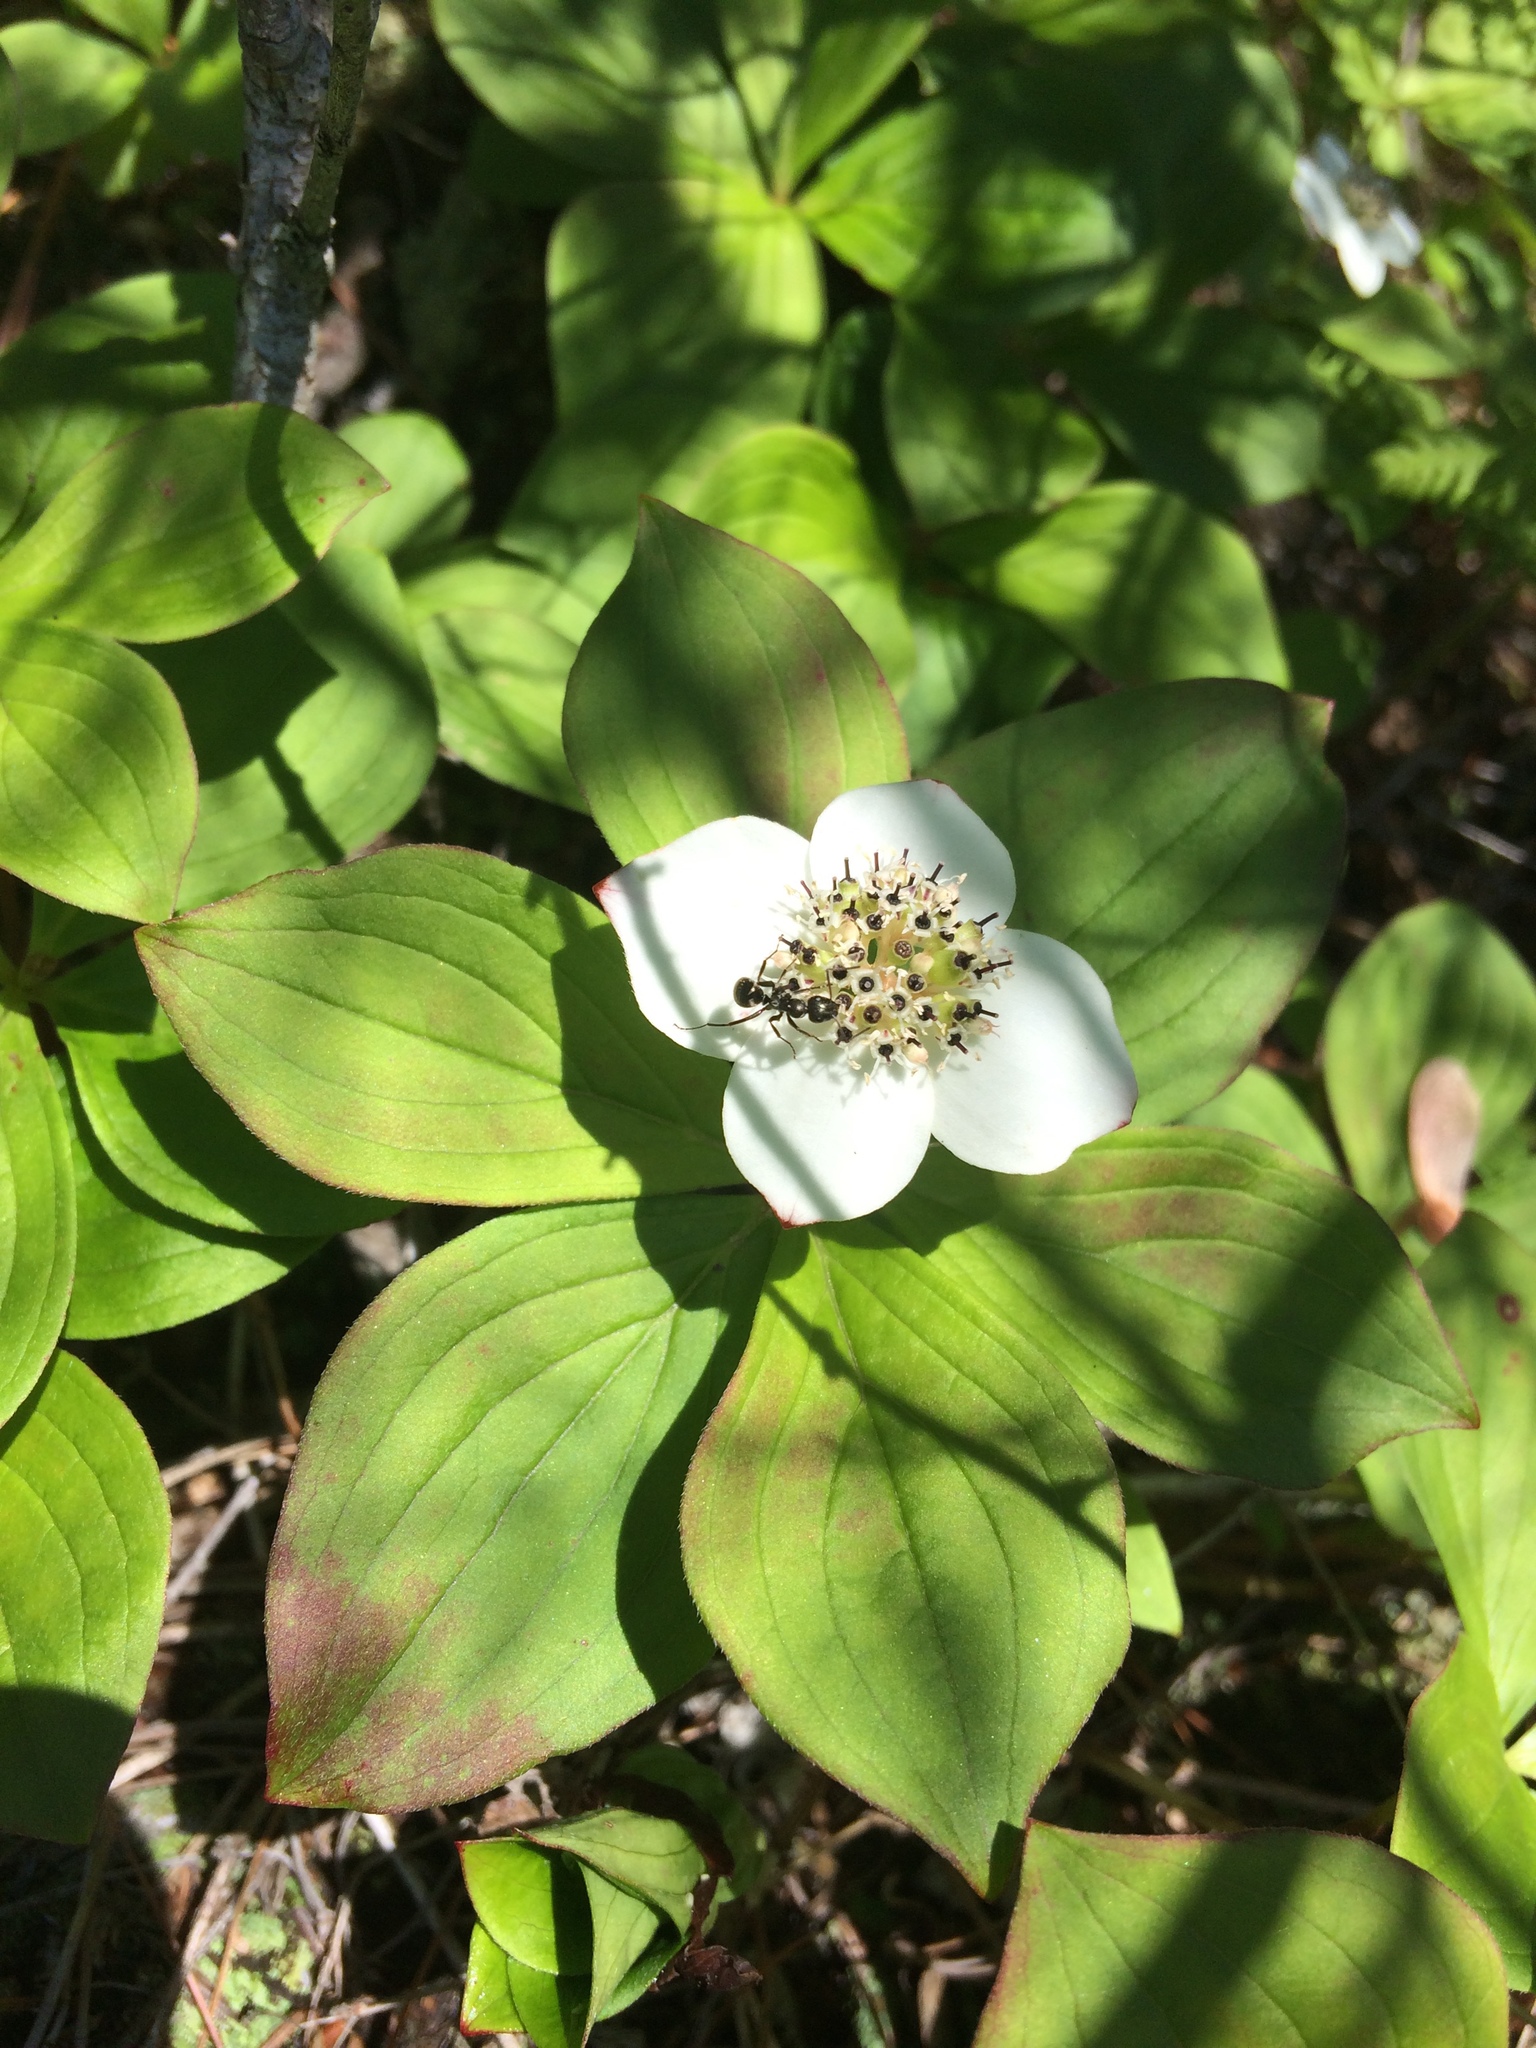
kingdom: Plantae
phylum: Tracheophyta
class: Magnoliopsida
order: Cornales
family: Cornaceae
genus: Cornus
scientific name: Cornus canadensis
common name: Creeping dogwood
